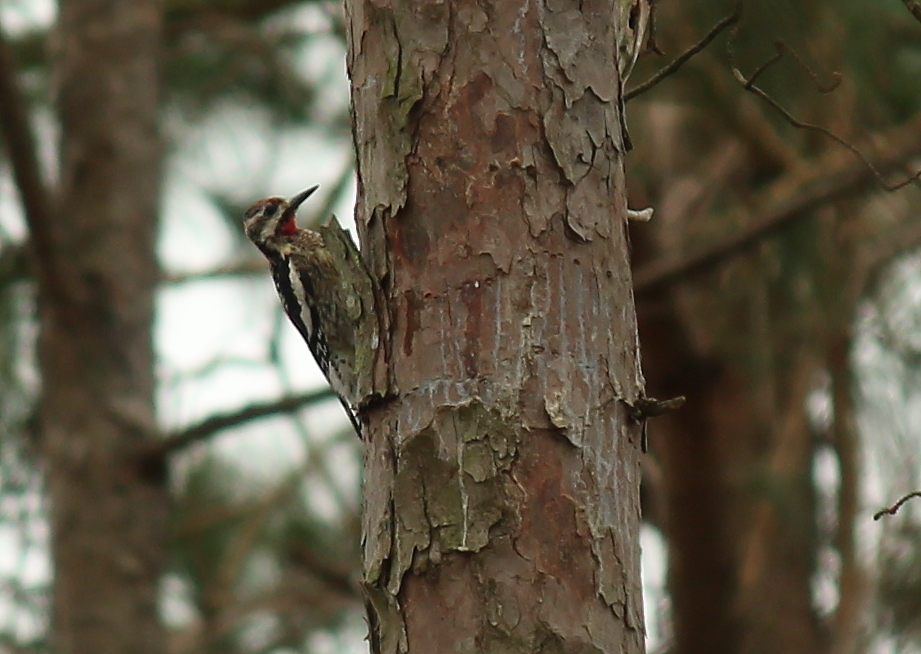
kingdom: Animalia
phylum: Chordata
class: Aves
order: Piciformes
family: Picidae
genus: Sphyrapicus
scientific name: Sphyrapicus varius
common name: Yellow-bellied sapsucker
